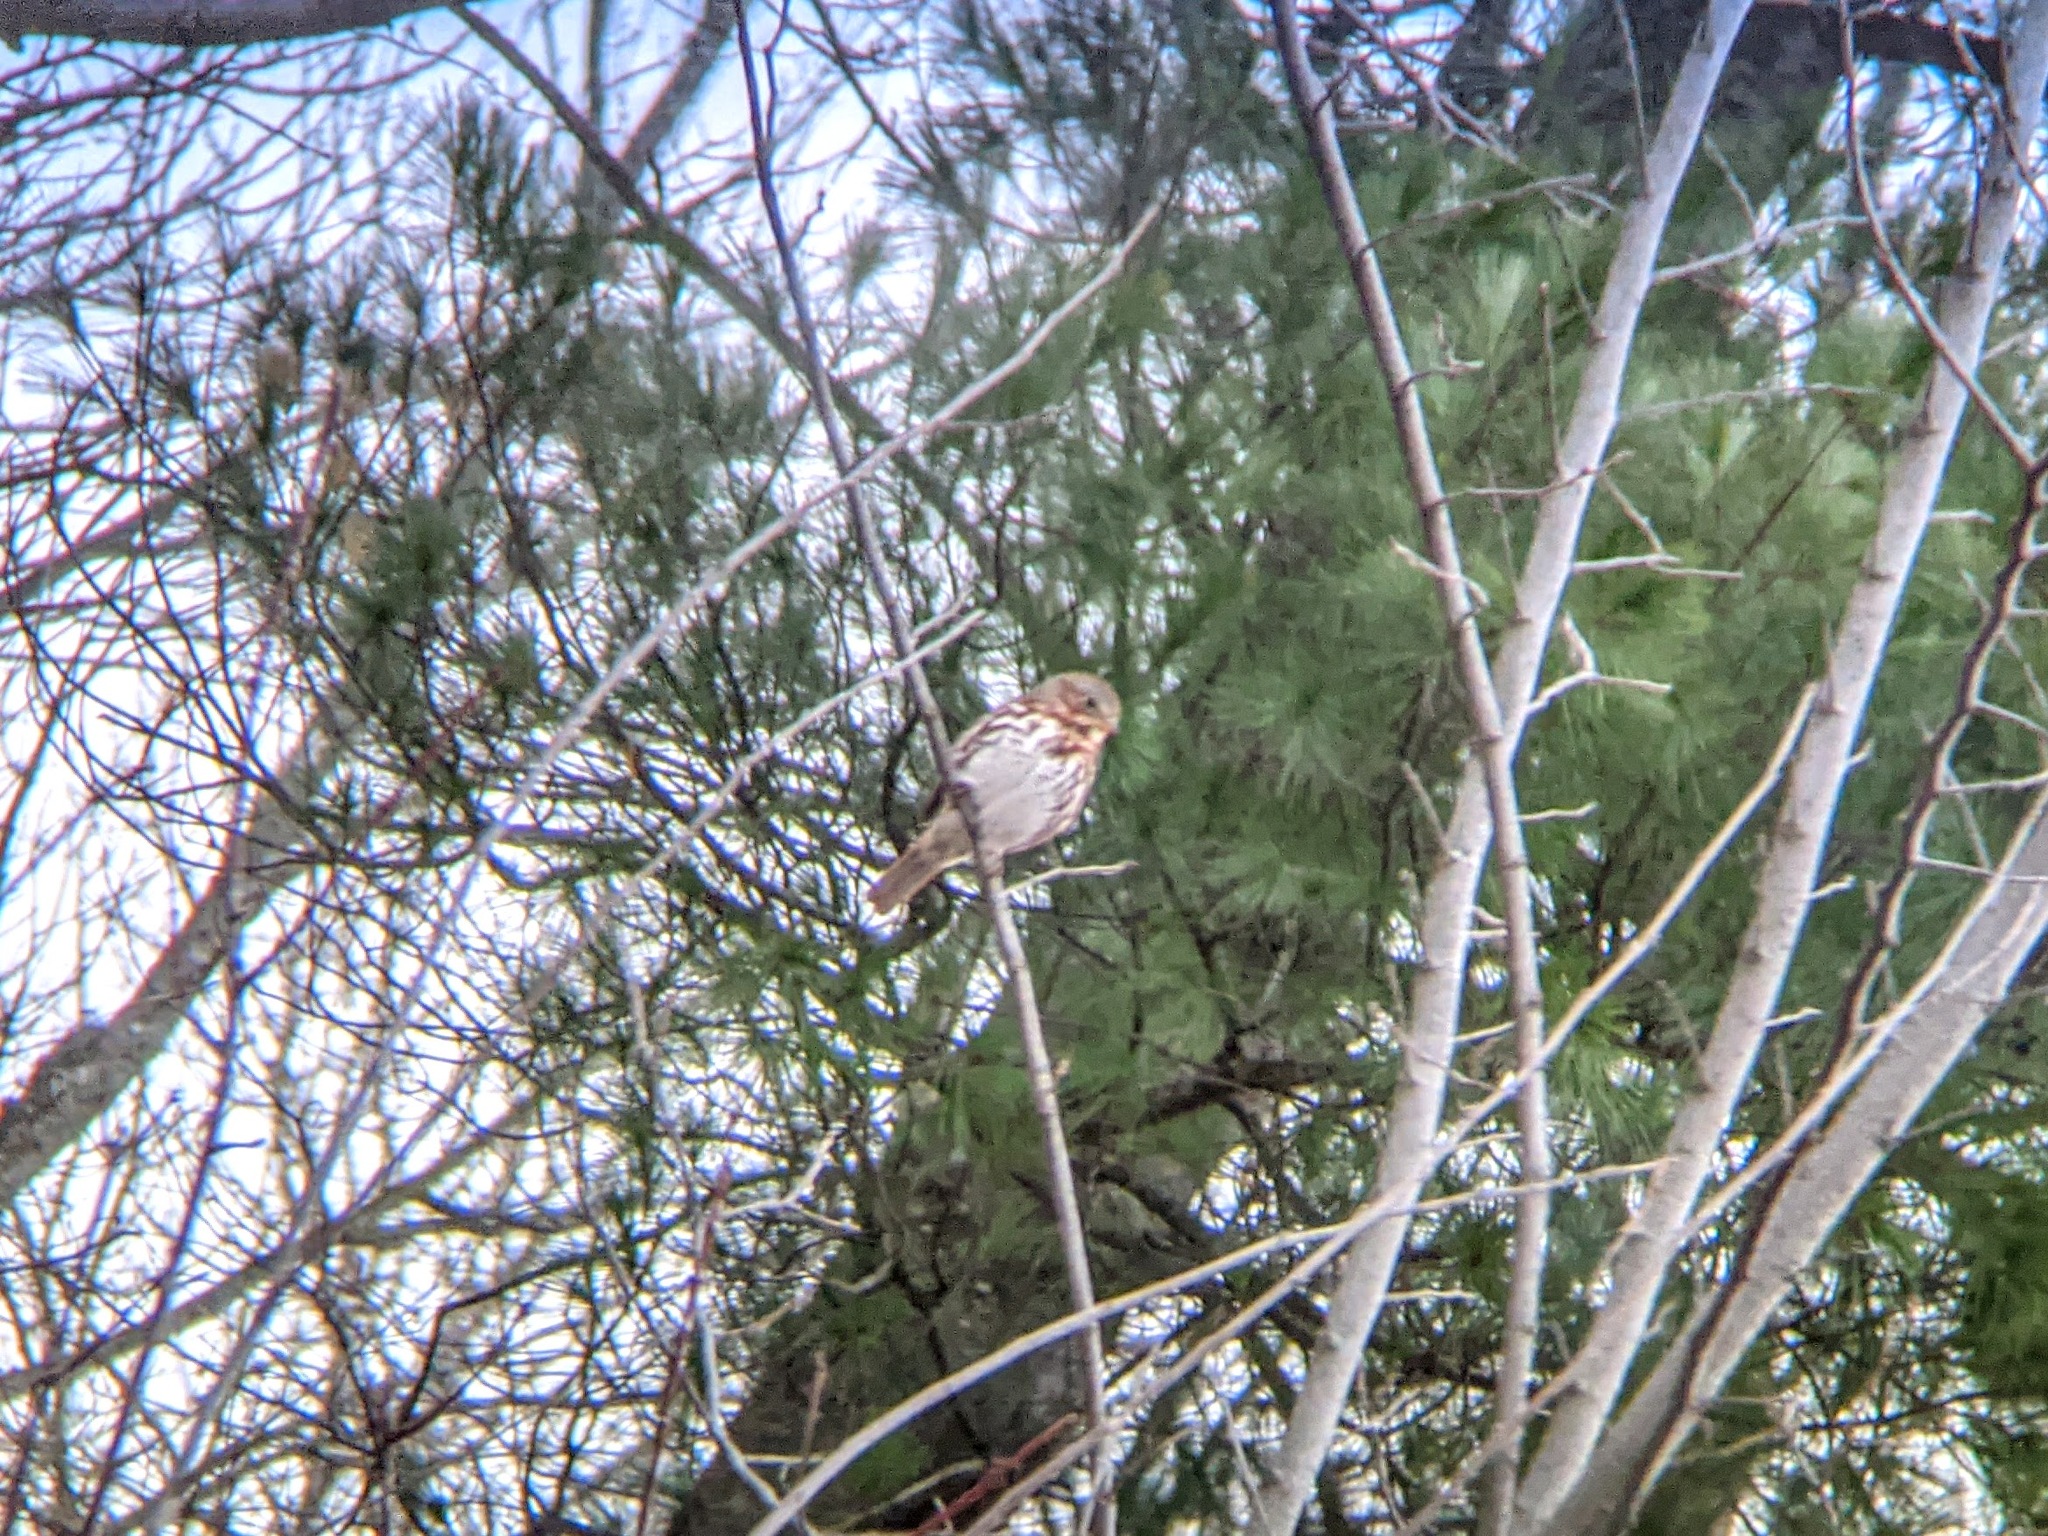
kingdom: Animalia
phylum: Chordata
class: Aves
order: Passeriformes
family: Passerellidae
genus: Passerella
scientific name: Passerella iliaca
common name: Fox sparrow
